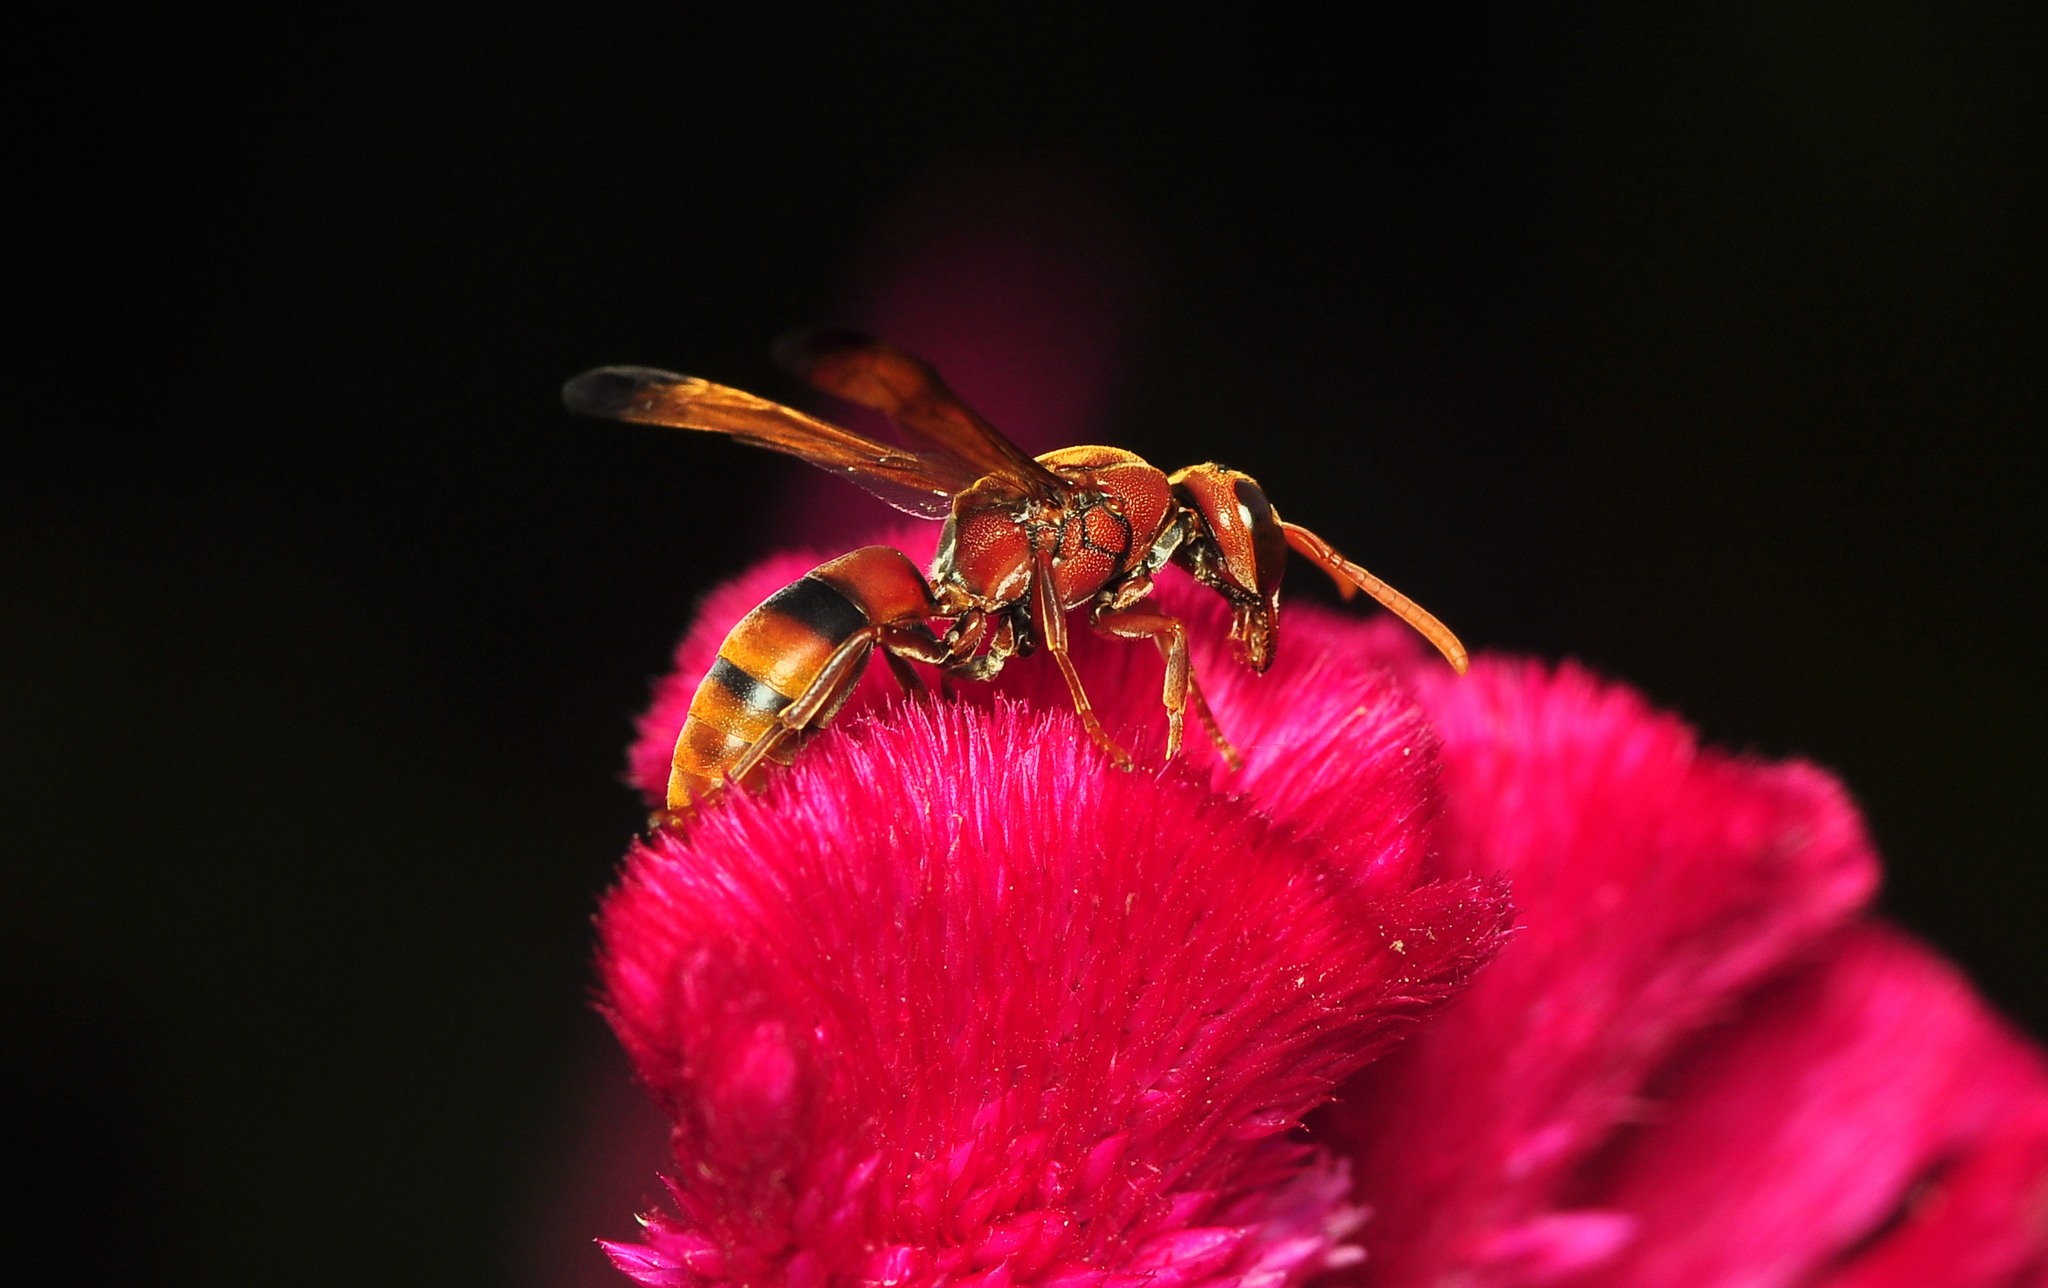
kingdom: Animalia
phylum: Arthropoda
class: Insecta
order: Hymenoptera
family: Eumenidae
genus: Rhynchium
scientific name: Rhynchium brunneum
